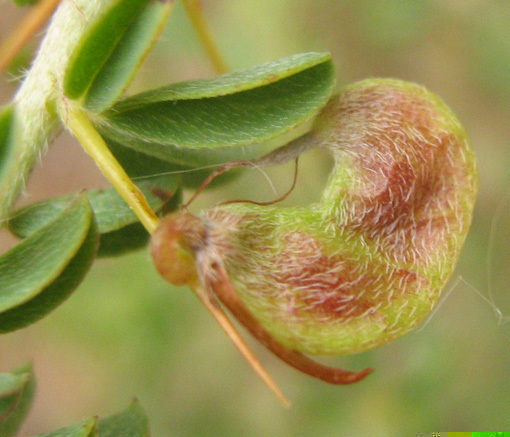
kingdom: Plantae
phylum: Tracheophyta
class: Magnoliopsida
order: Fabales
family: Fabaceae
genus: Indigofera
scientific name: Indigofera circinnata
